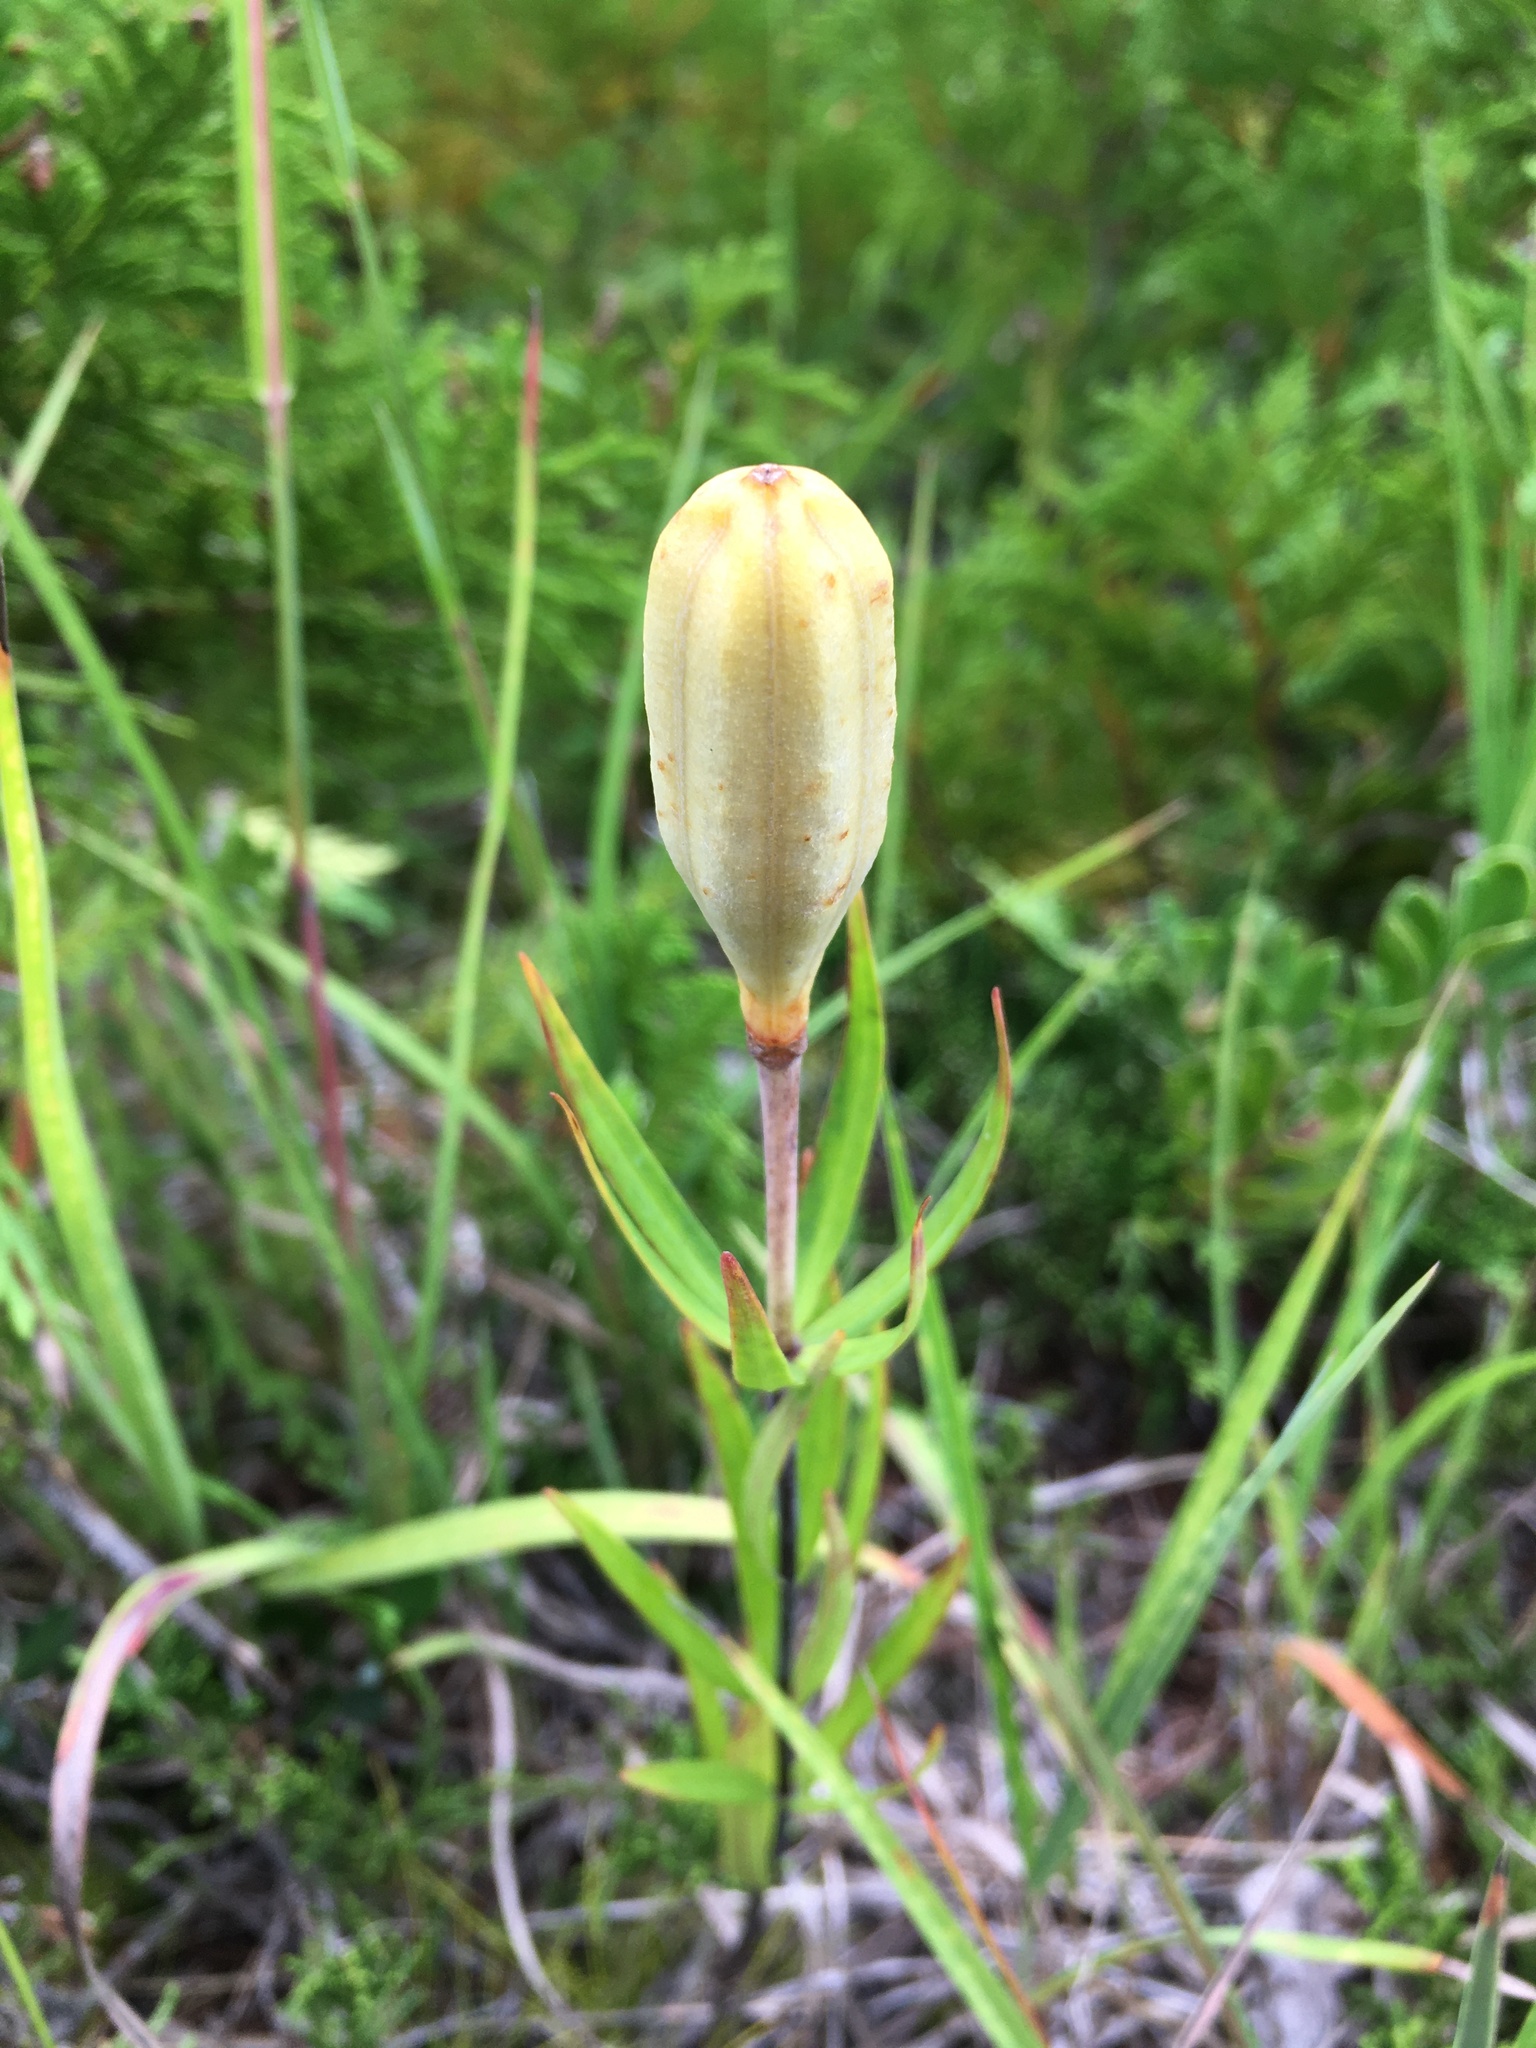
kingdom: Plantae
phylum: Tracheophyta
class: Liliopsida
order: Liliales
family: Liliaceae
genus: Lilium
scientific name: Lilium philadelphicum
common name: Red lily
